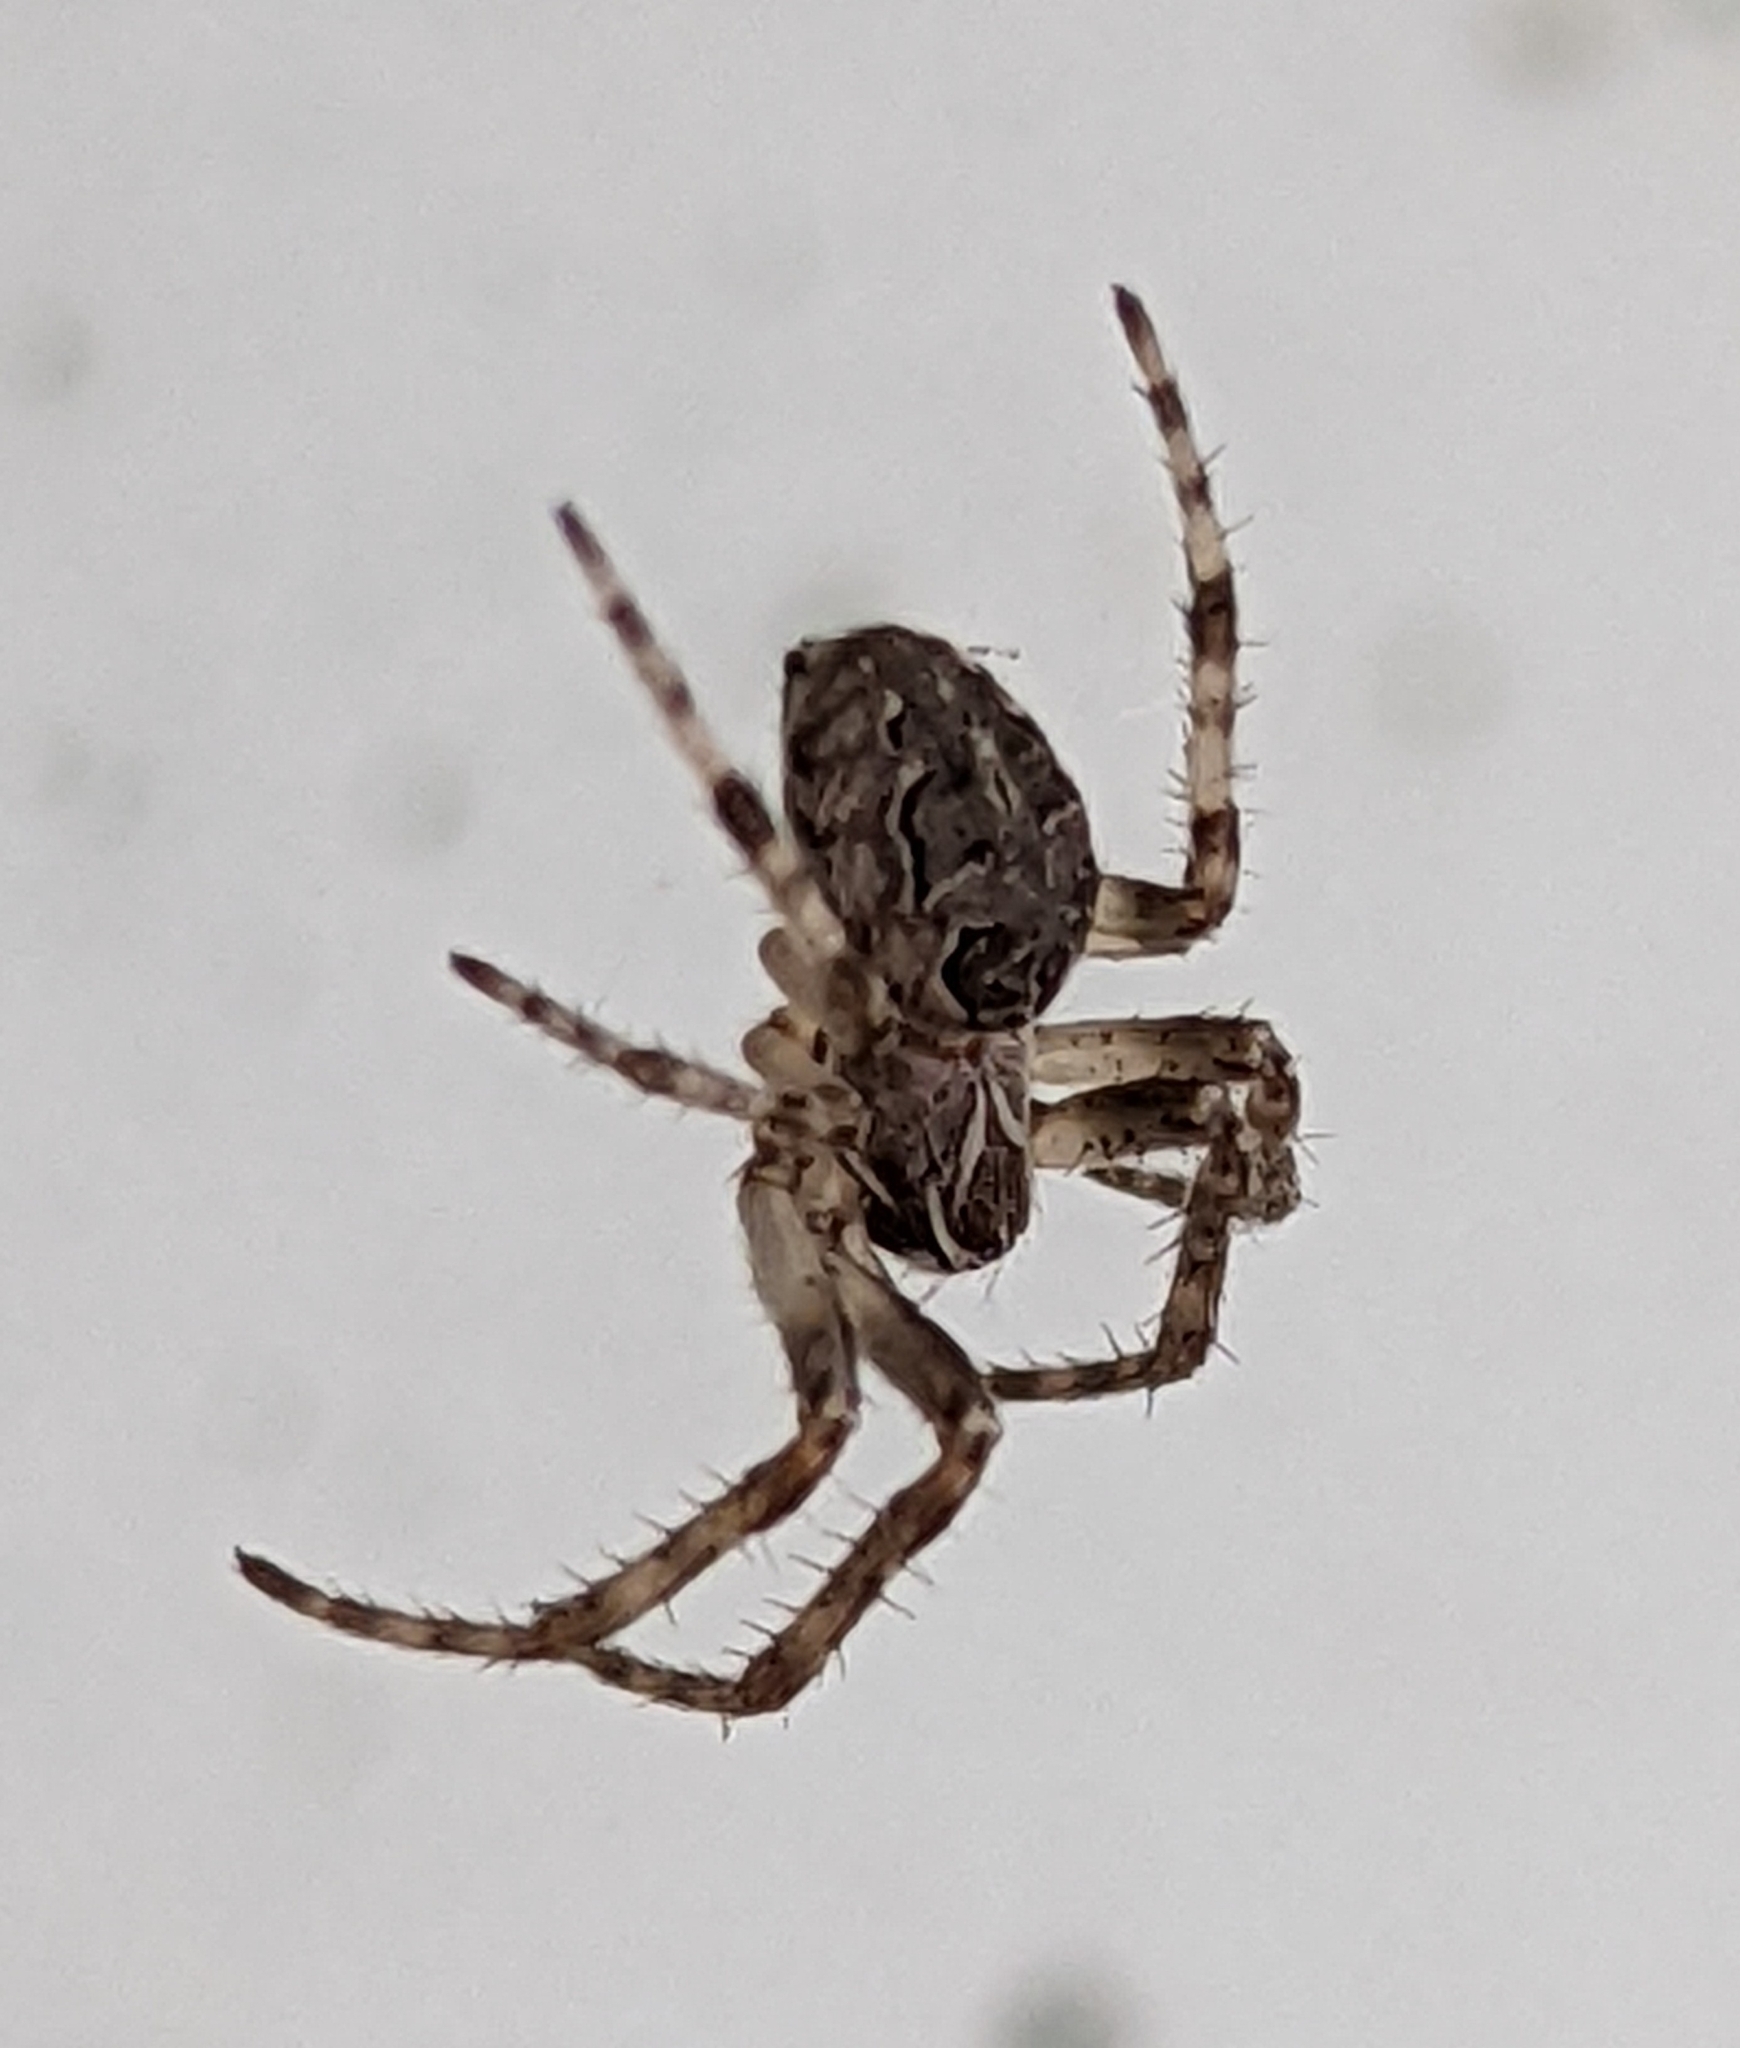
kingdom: Animalia
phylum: Arthropoda
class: Arachnida
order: Araneae
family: Araneidae
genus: Larinioides
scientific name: Larinioides sclopetarius
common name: Bridge orbweaver
